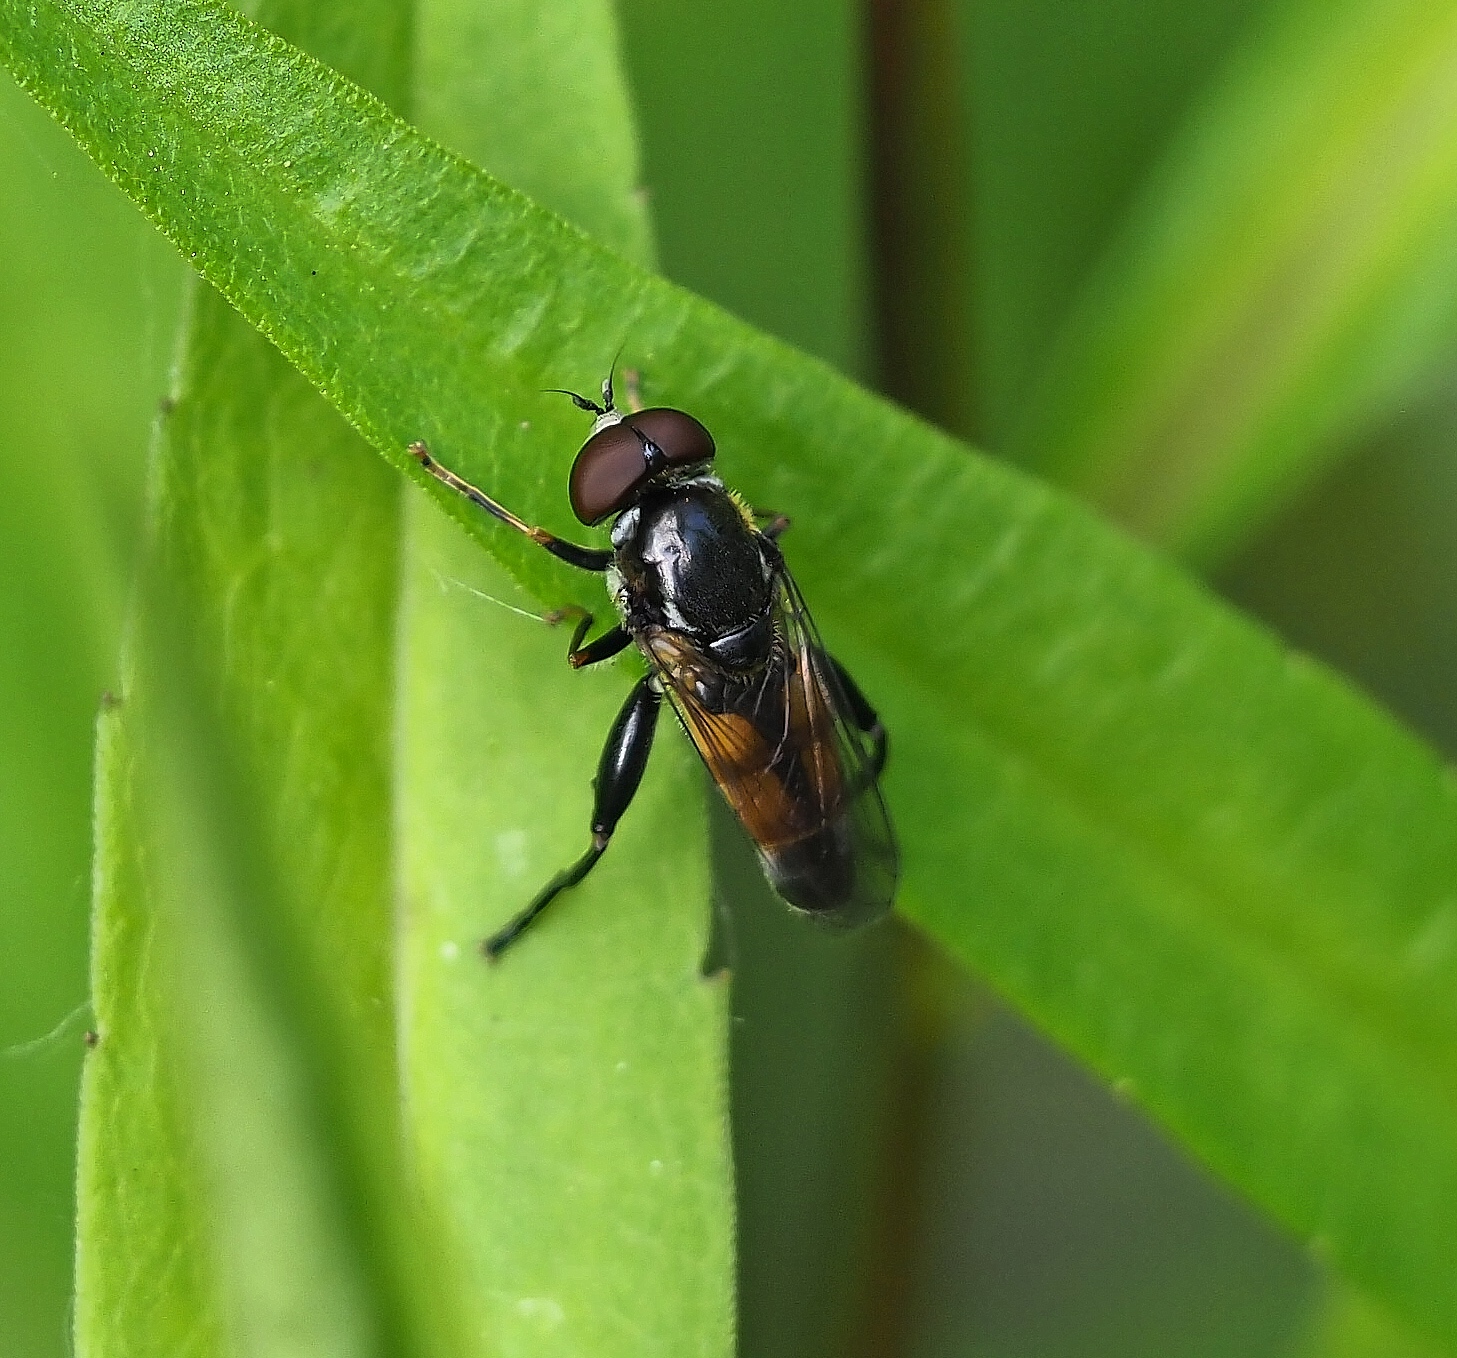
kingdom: Animalia
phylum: Arthropoda
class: Insecta
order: Diptera
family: Syrphidae
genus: Tropidia
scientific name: Tropidia scita
